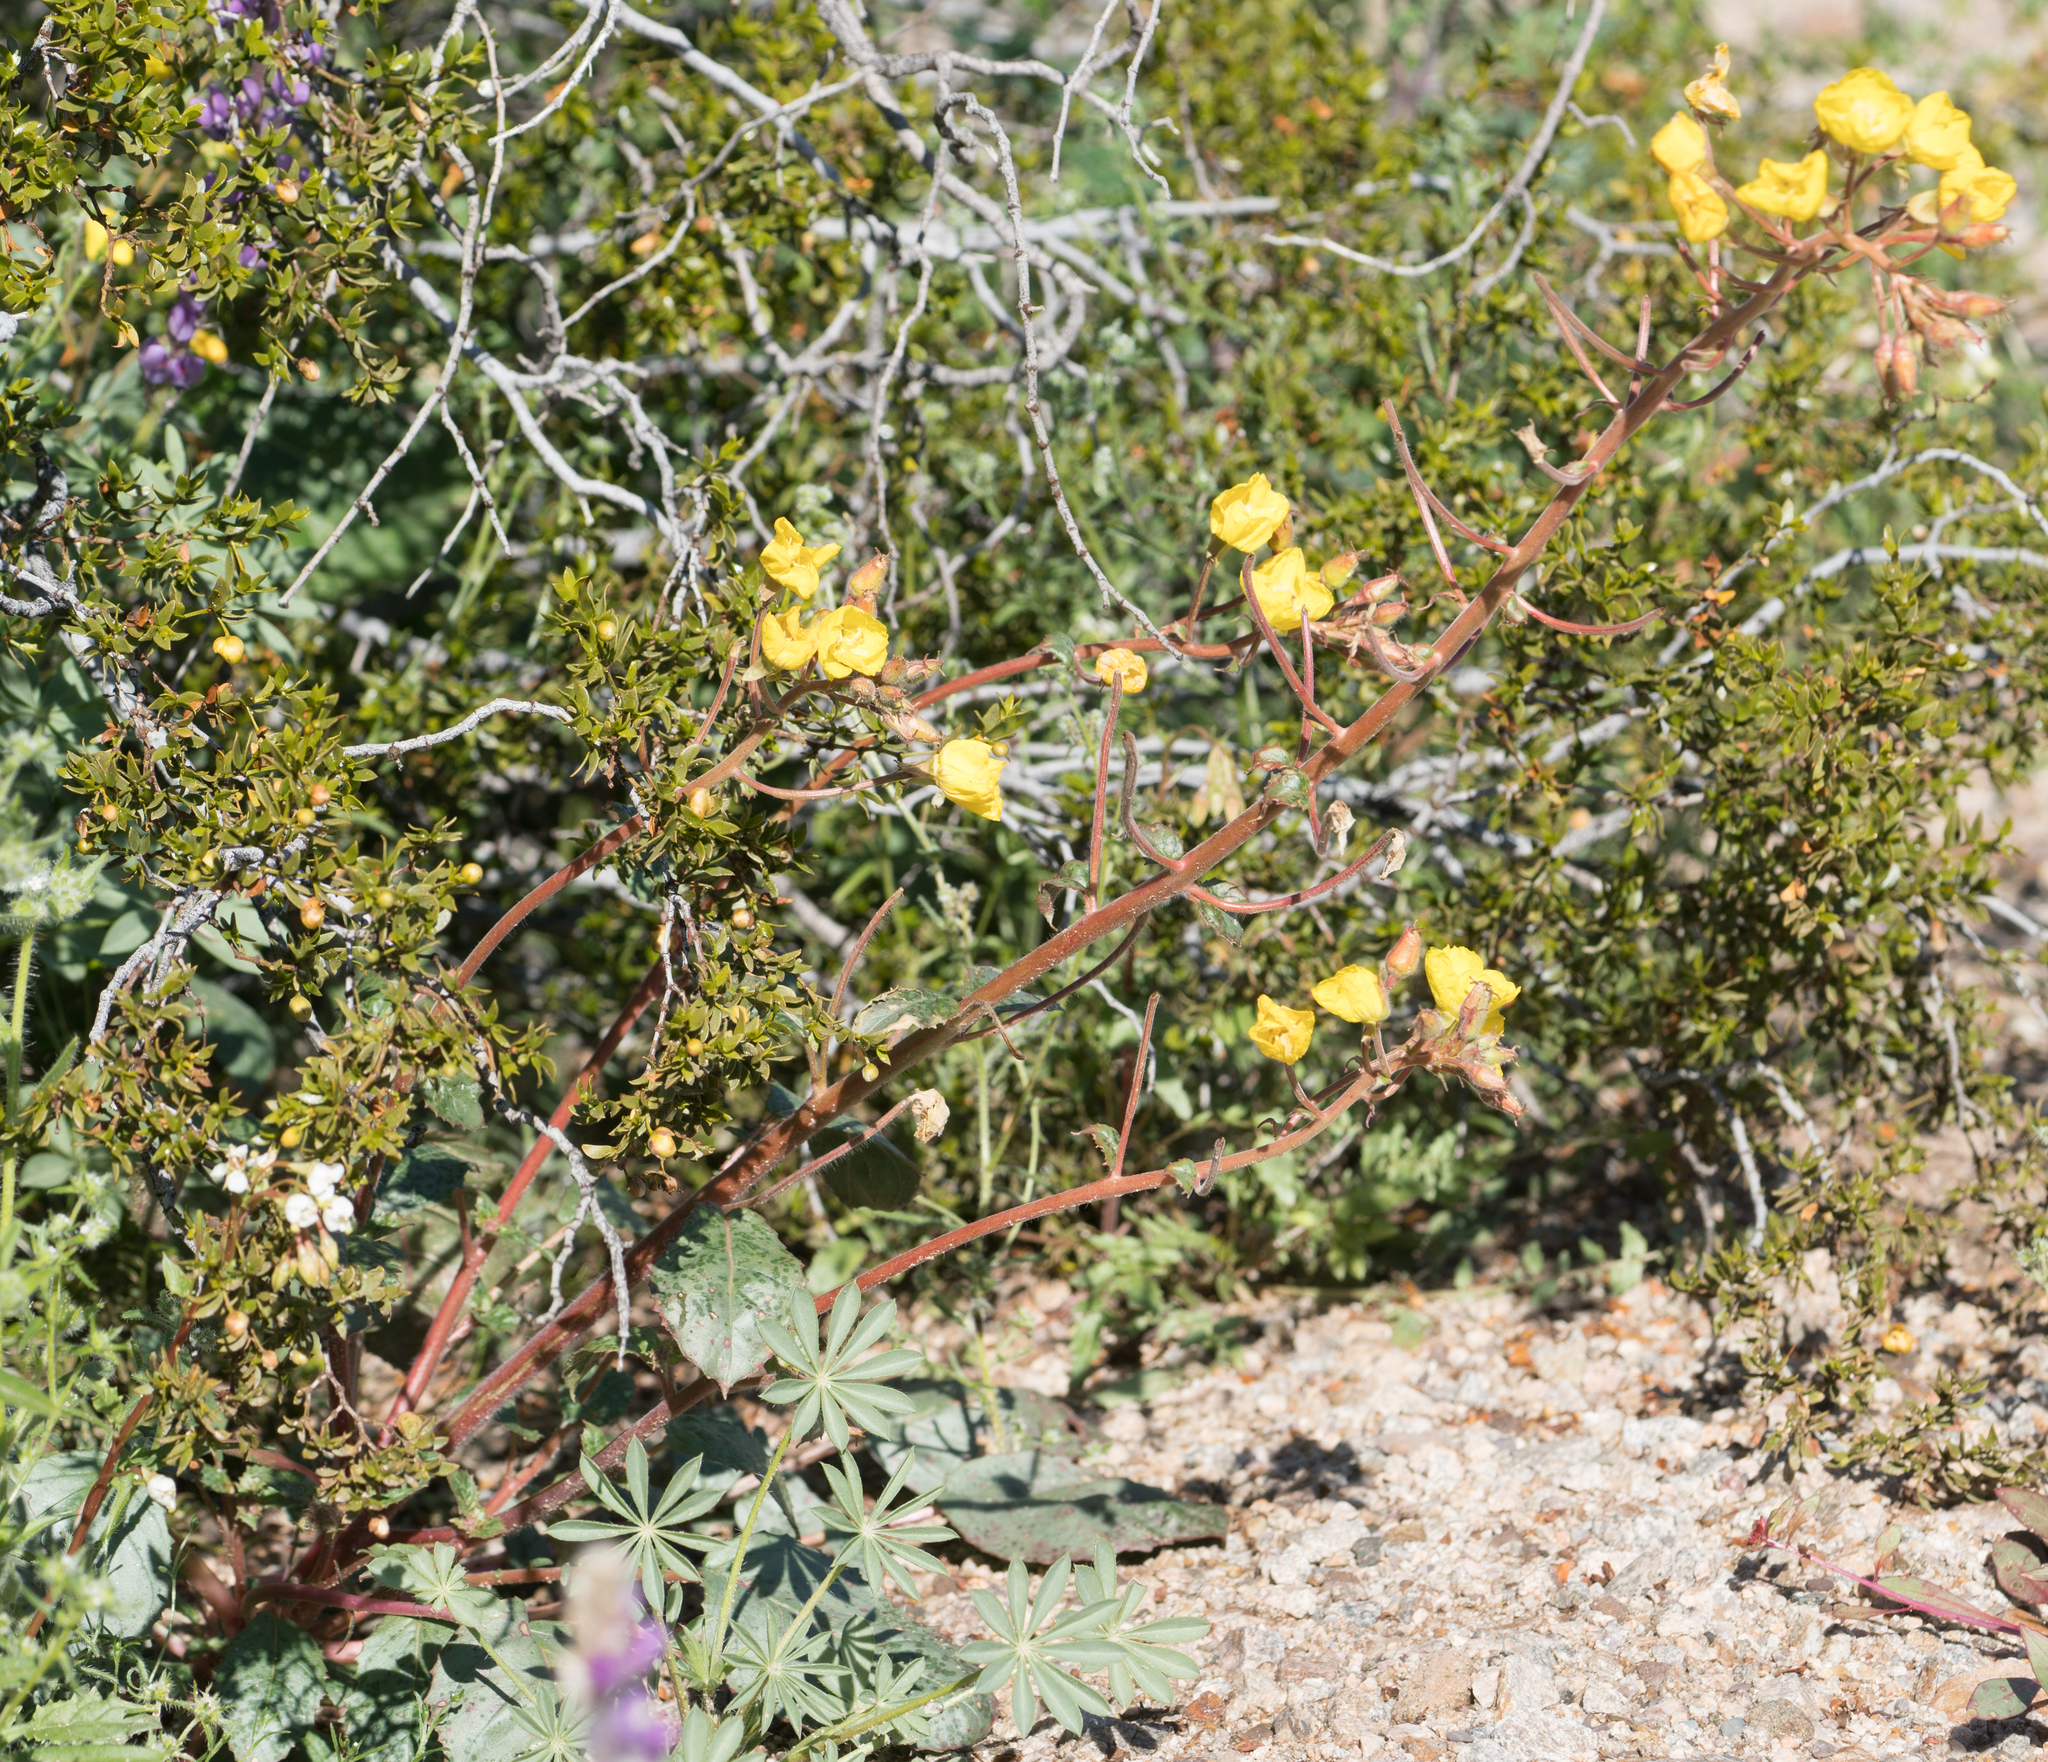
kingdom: Plantae
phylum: Tracheophyta
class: Magnoliopsida
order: Myrtales
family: Onagraceae
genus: Chylismia
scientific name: Chylismia brevipes
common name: Yellow cups
